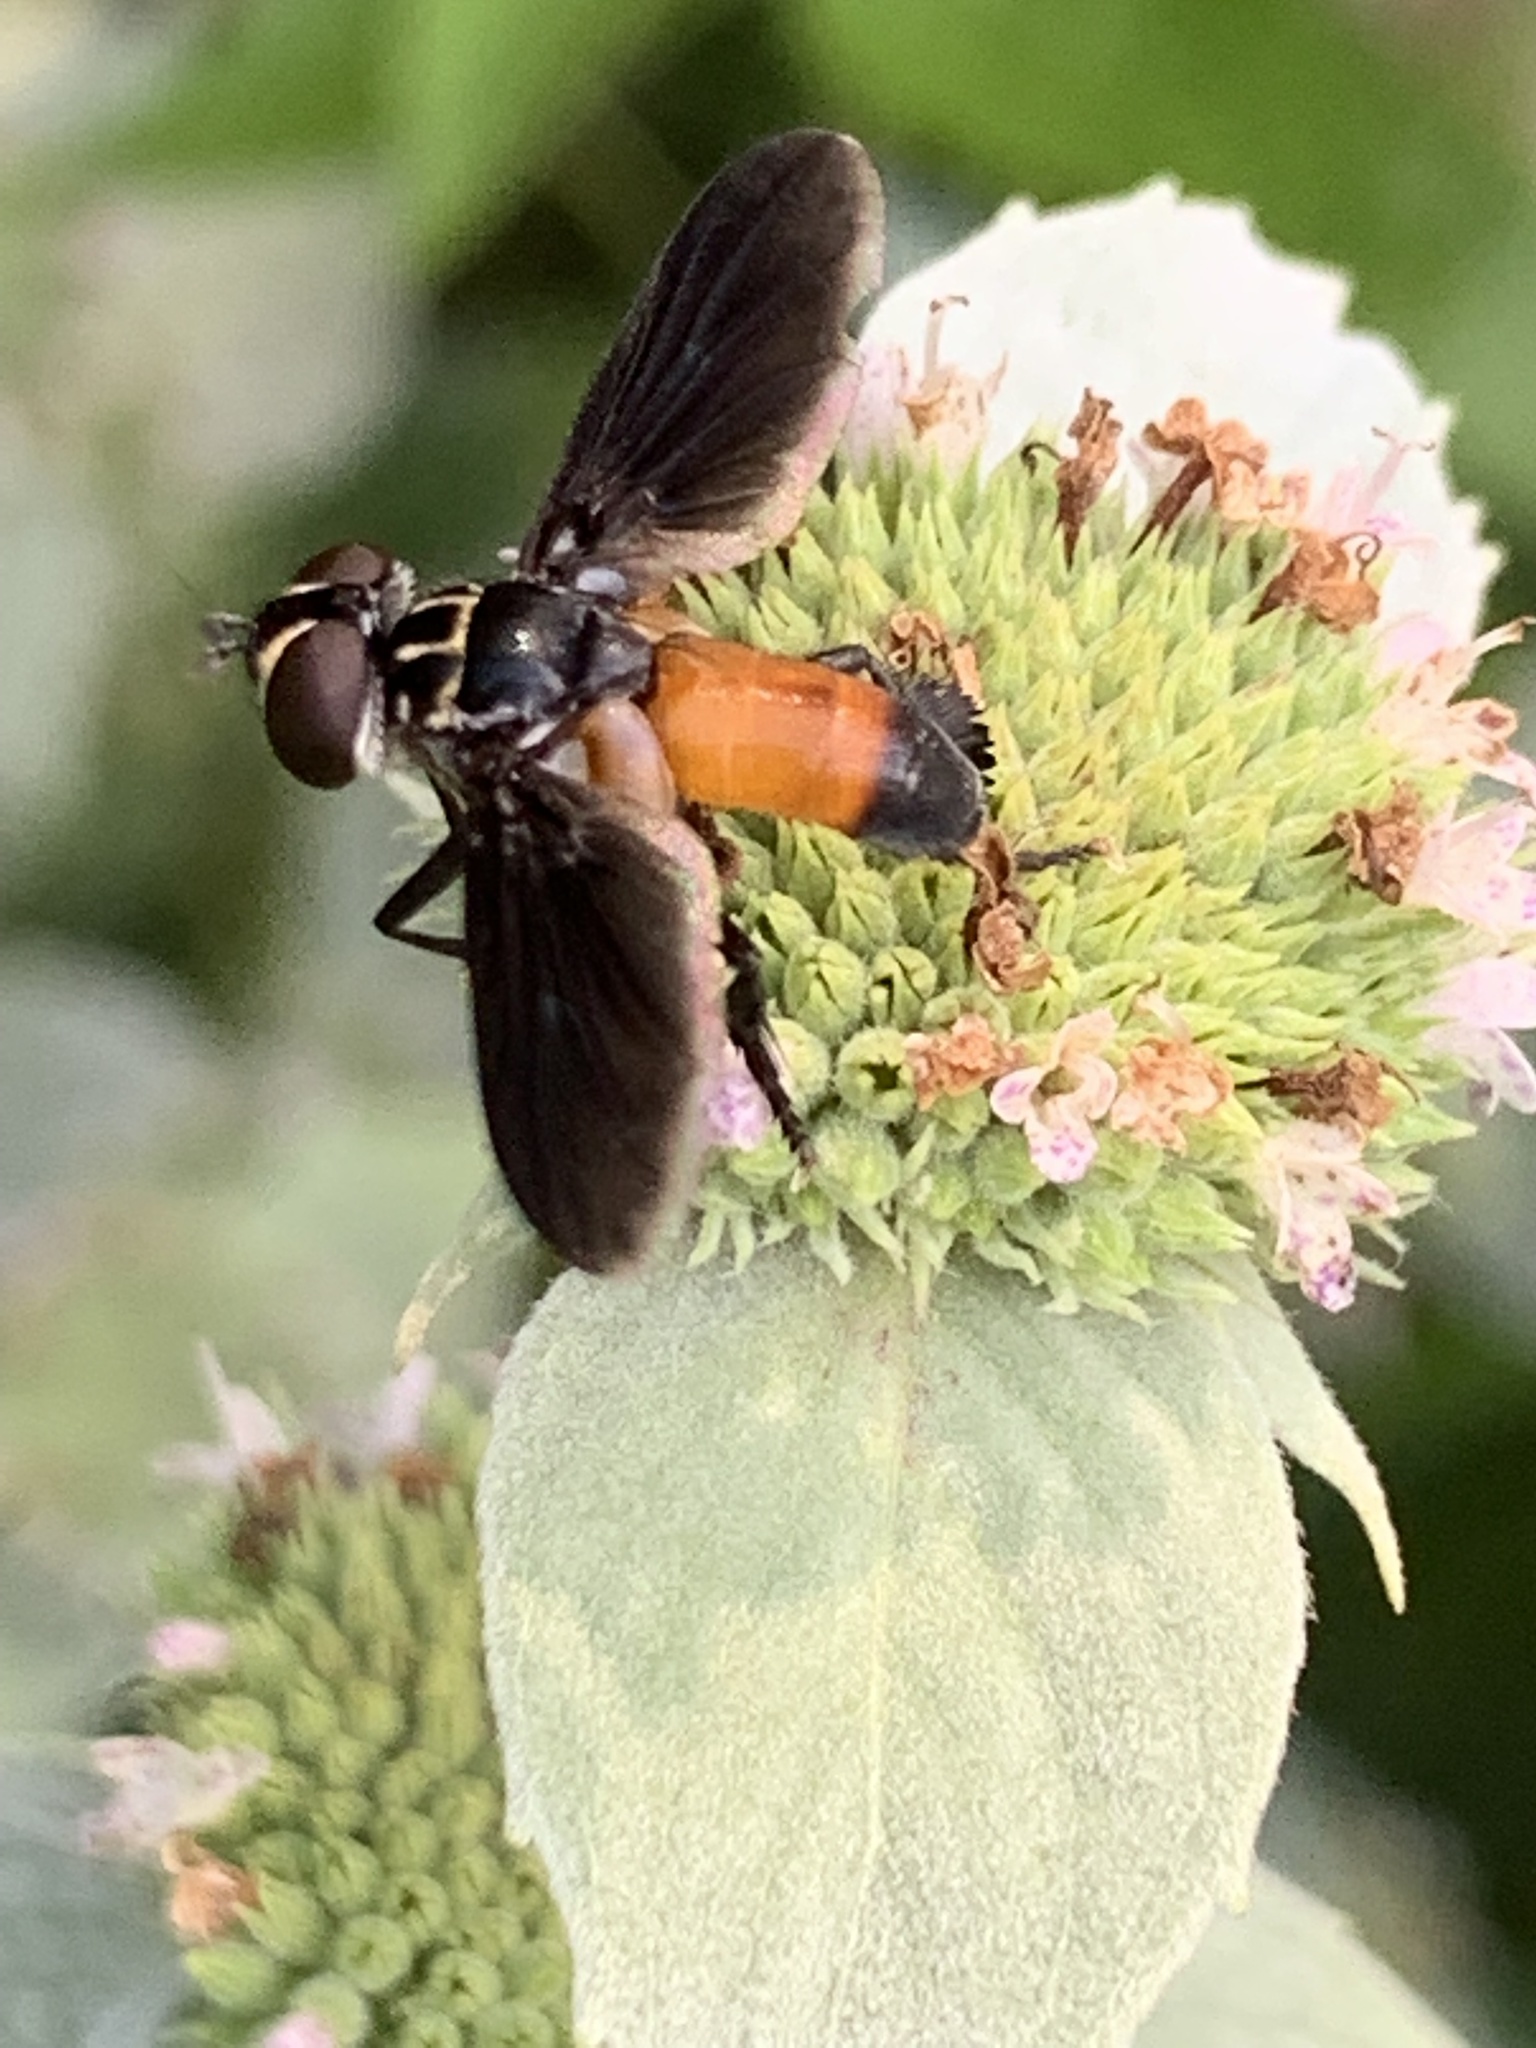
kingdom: Animalia
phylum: Arthropoda
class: Insecta
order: Diptera
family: Tachinidae
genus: Trichopoda
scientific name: Trichopoda pennipes
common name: Tachinid fly
